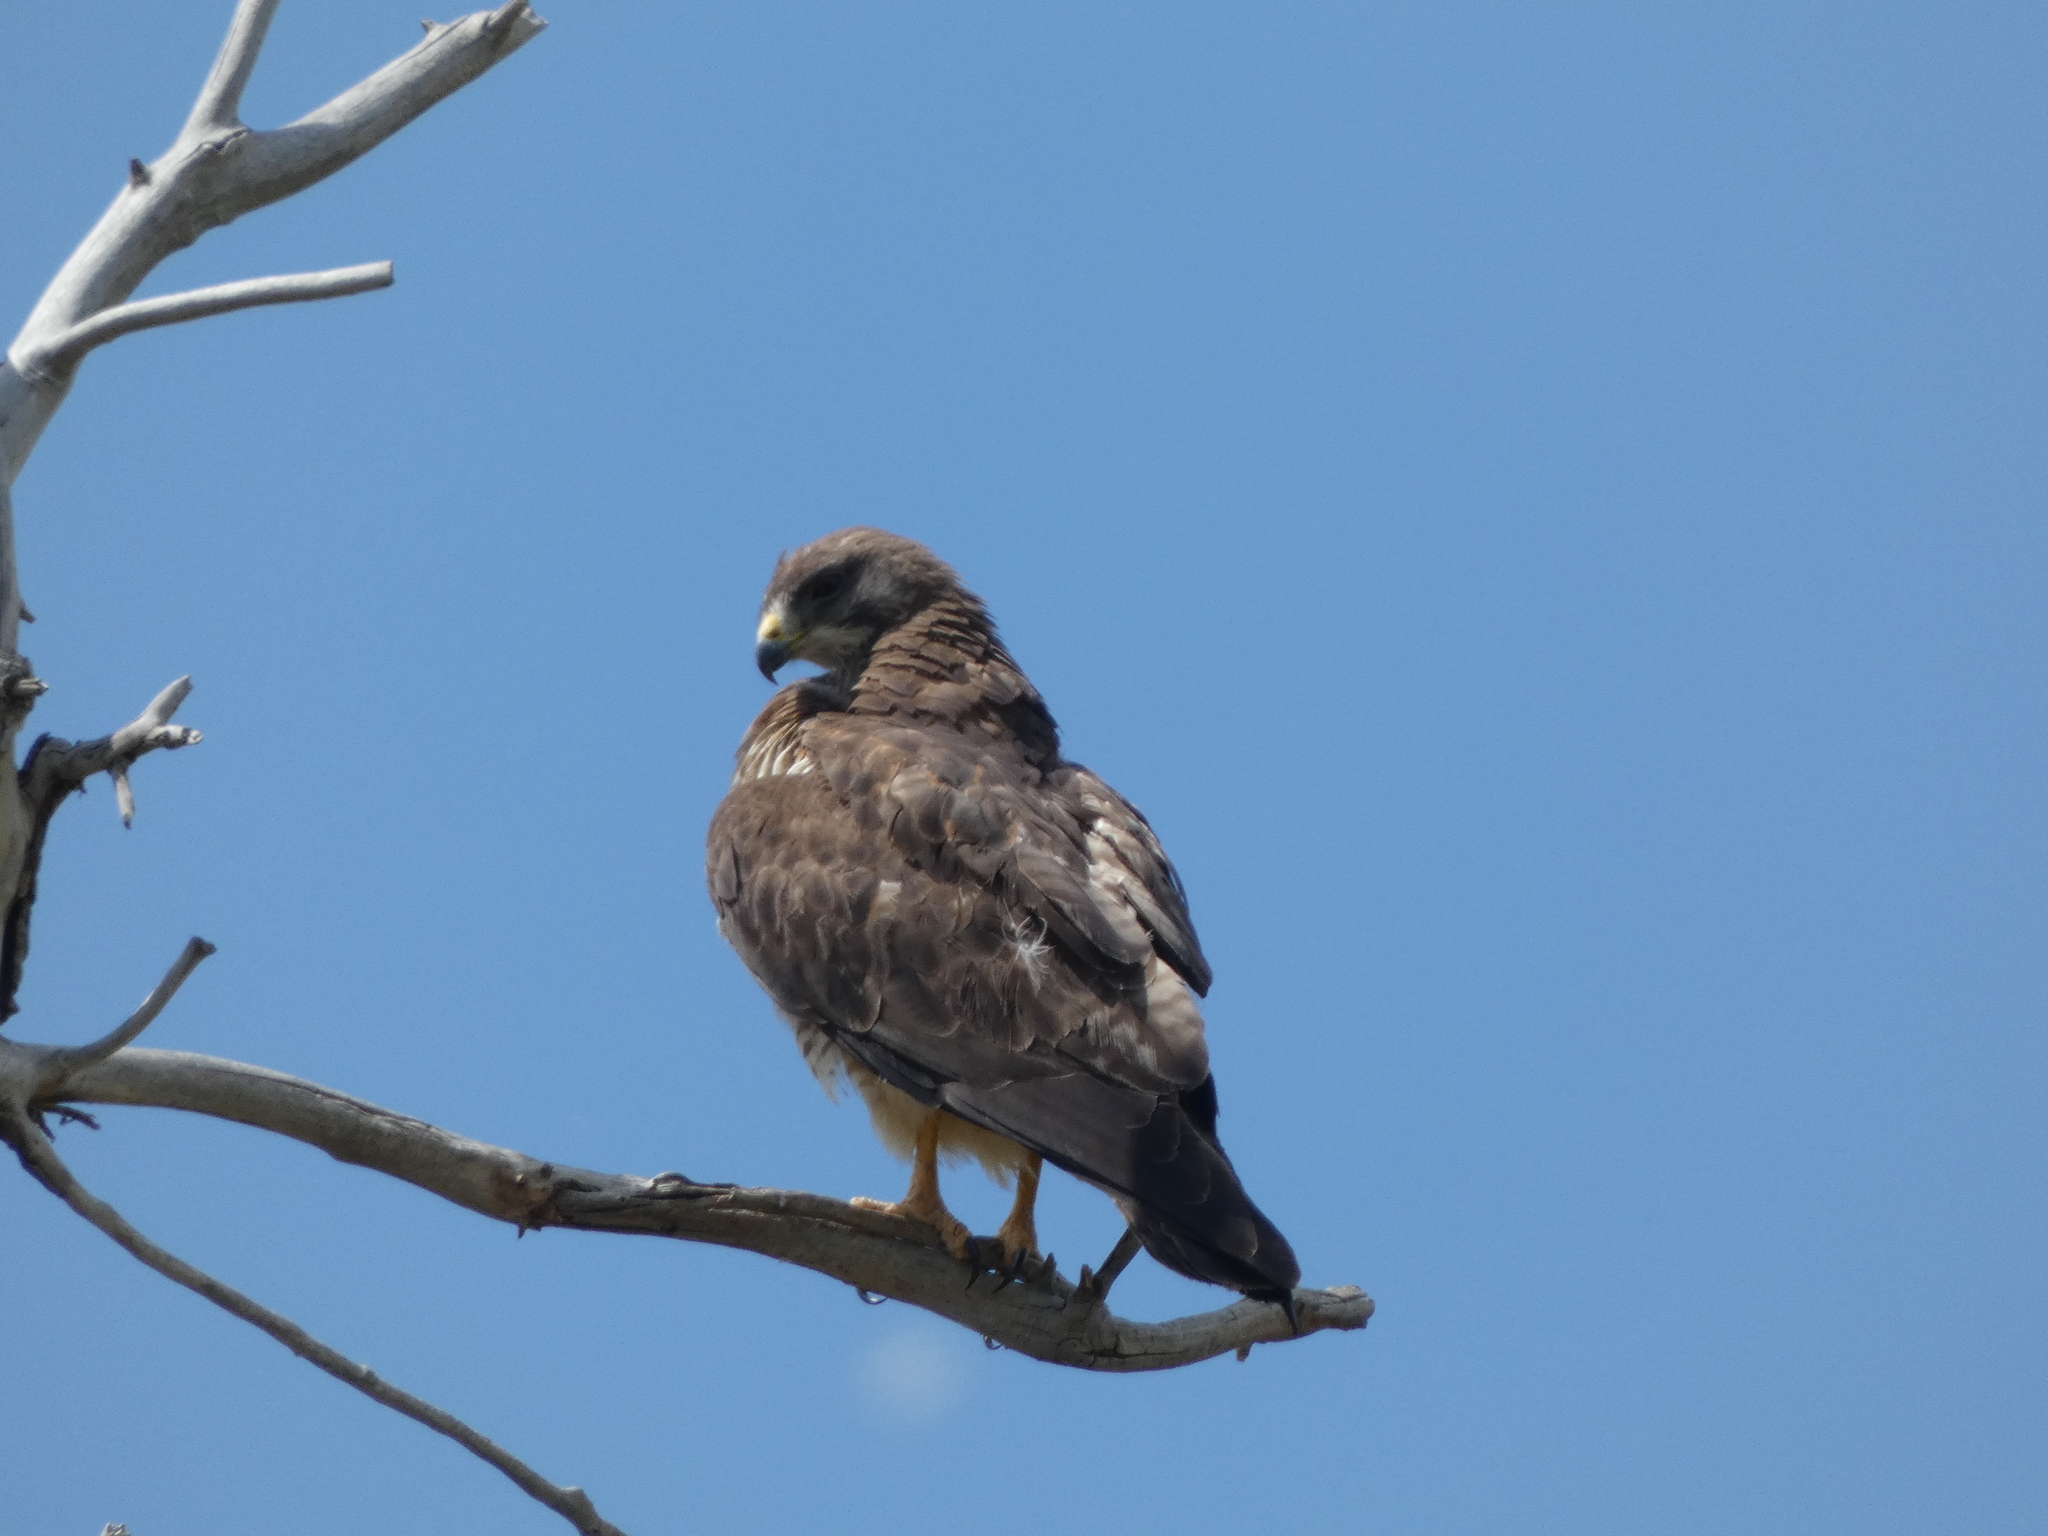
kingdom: Animalia
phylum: Chordata
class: Aves
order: Accipitriformes
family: Accipitridae
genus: Buteo
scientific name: Buteo swainsoni
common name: Swainson's hawk
